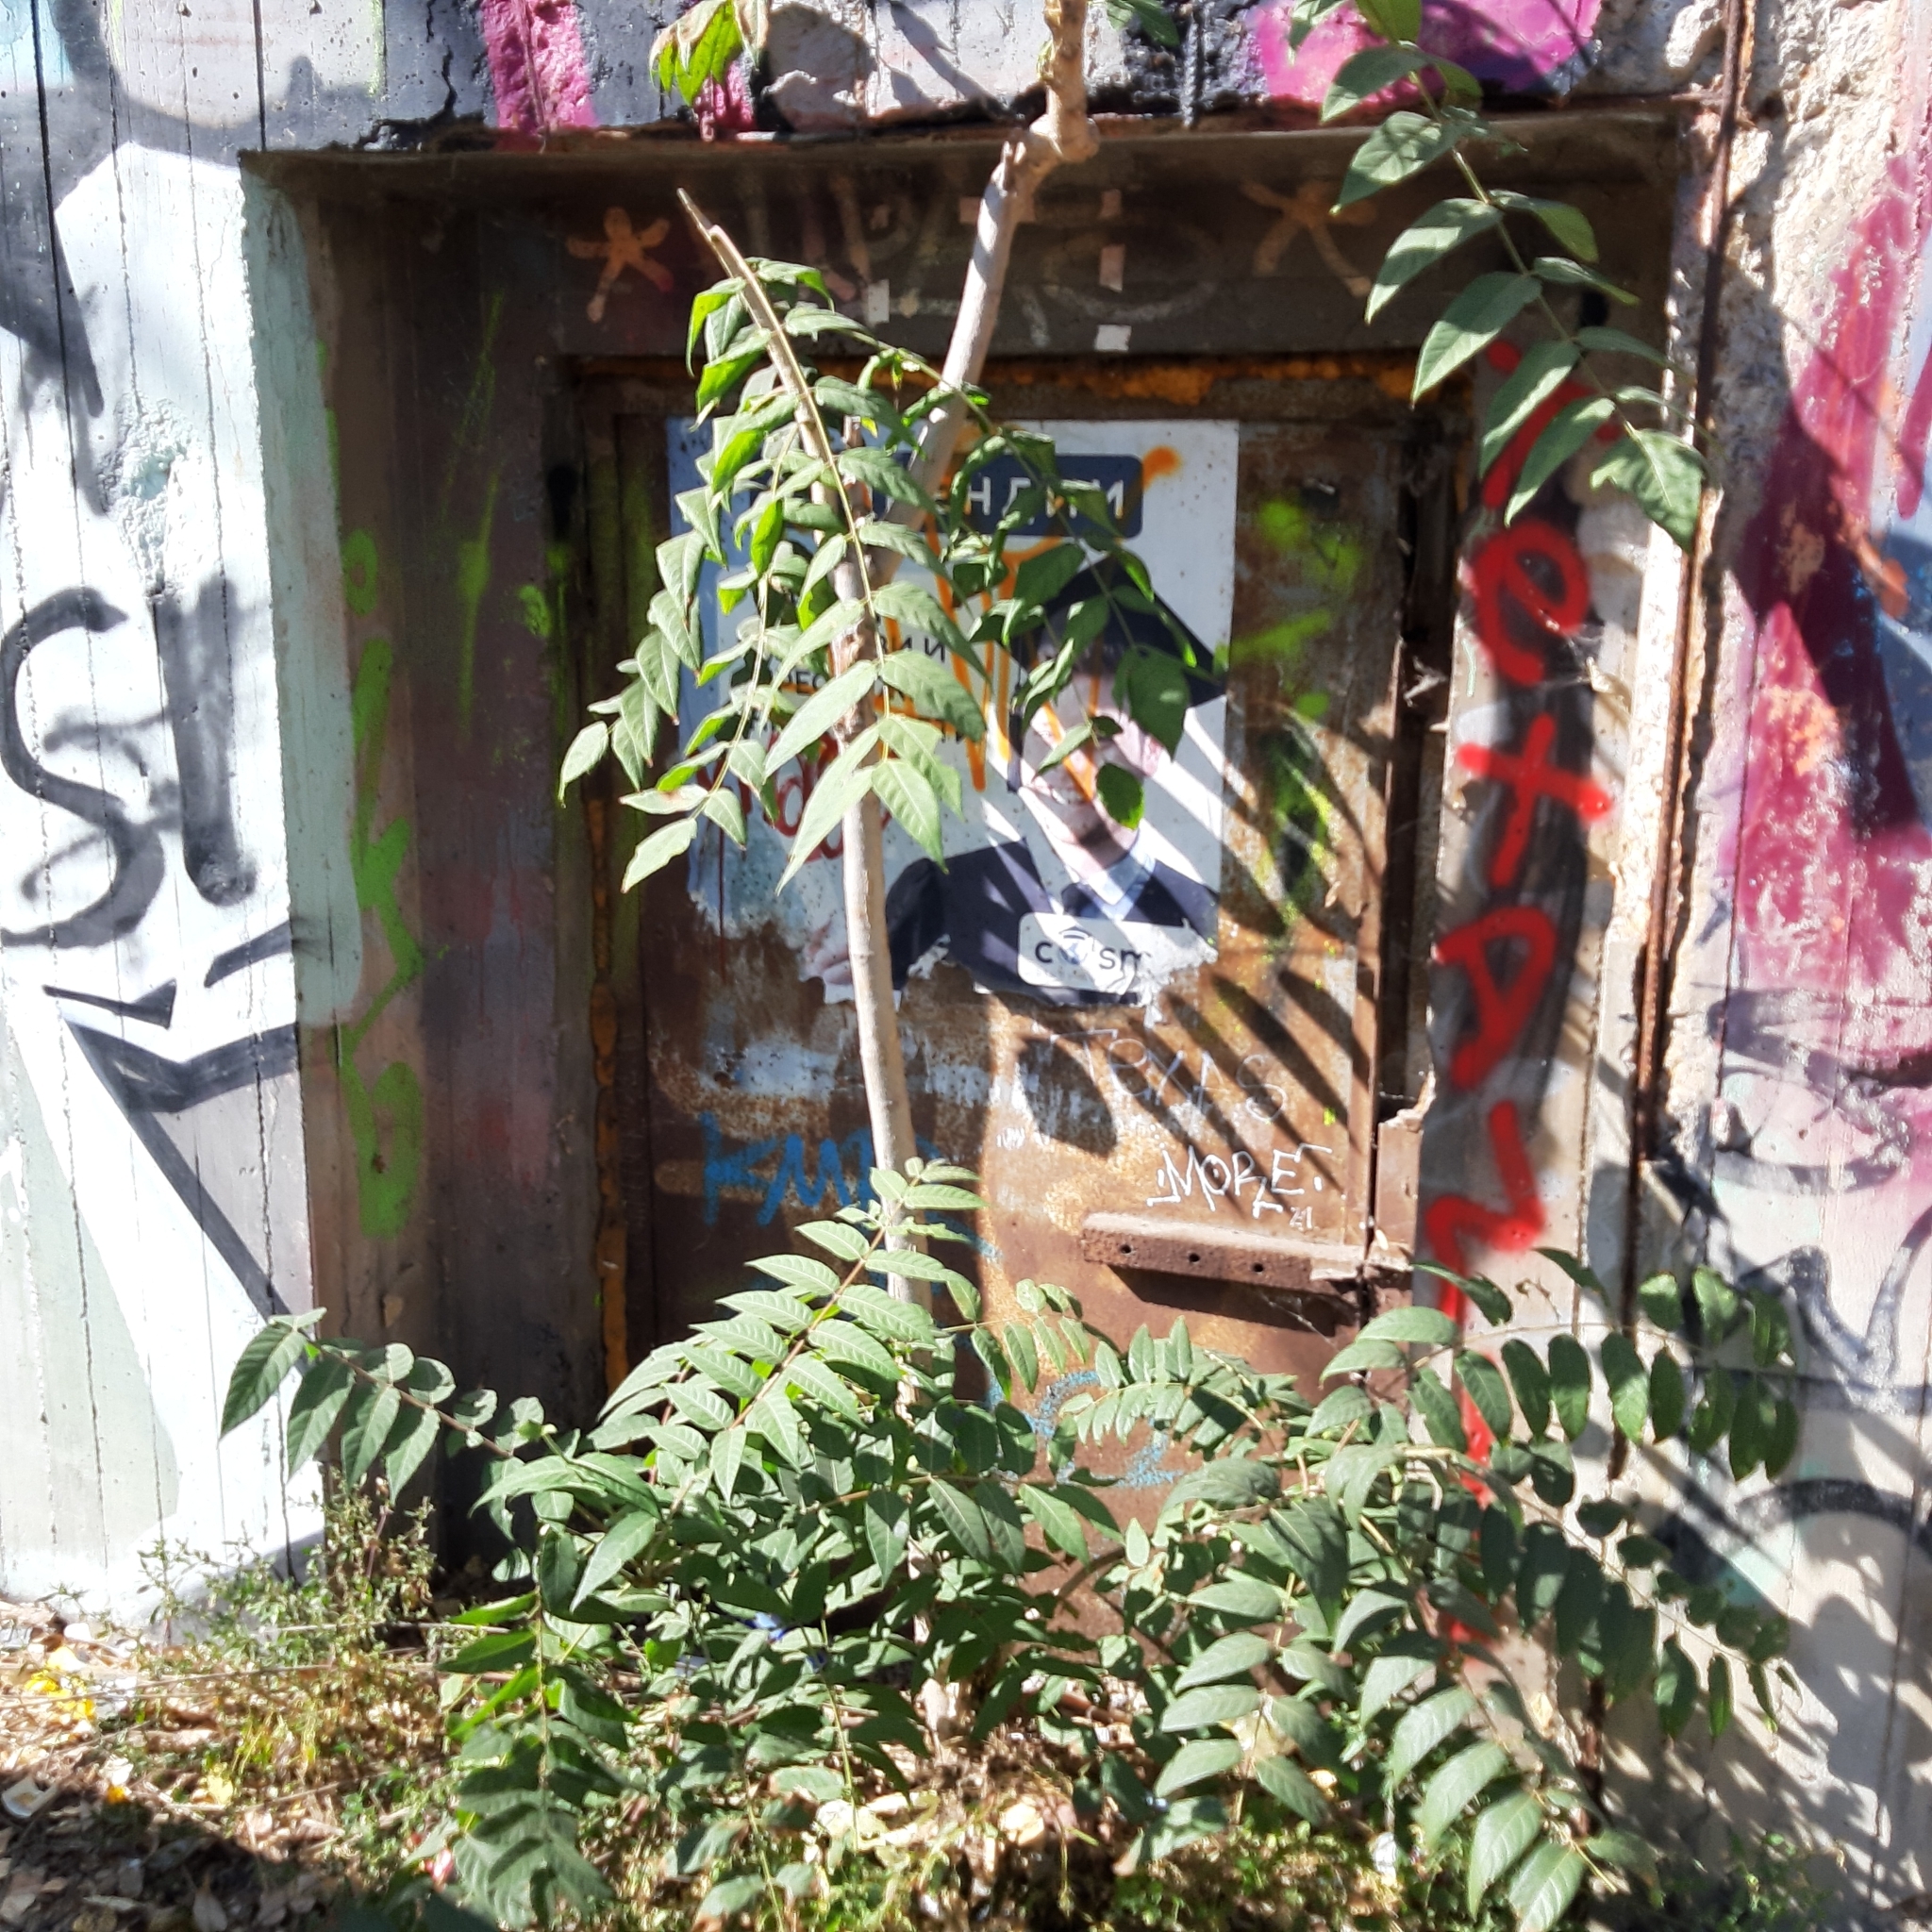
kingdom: Plantae
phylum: Tracheophyta
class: Magnoliopsida
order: Sapindales
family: Simaroubaceae
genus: Ailanthus
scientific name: Ailanthus altissima
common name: Tree-of-heaven
